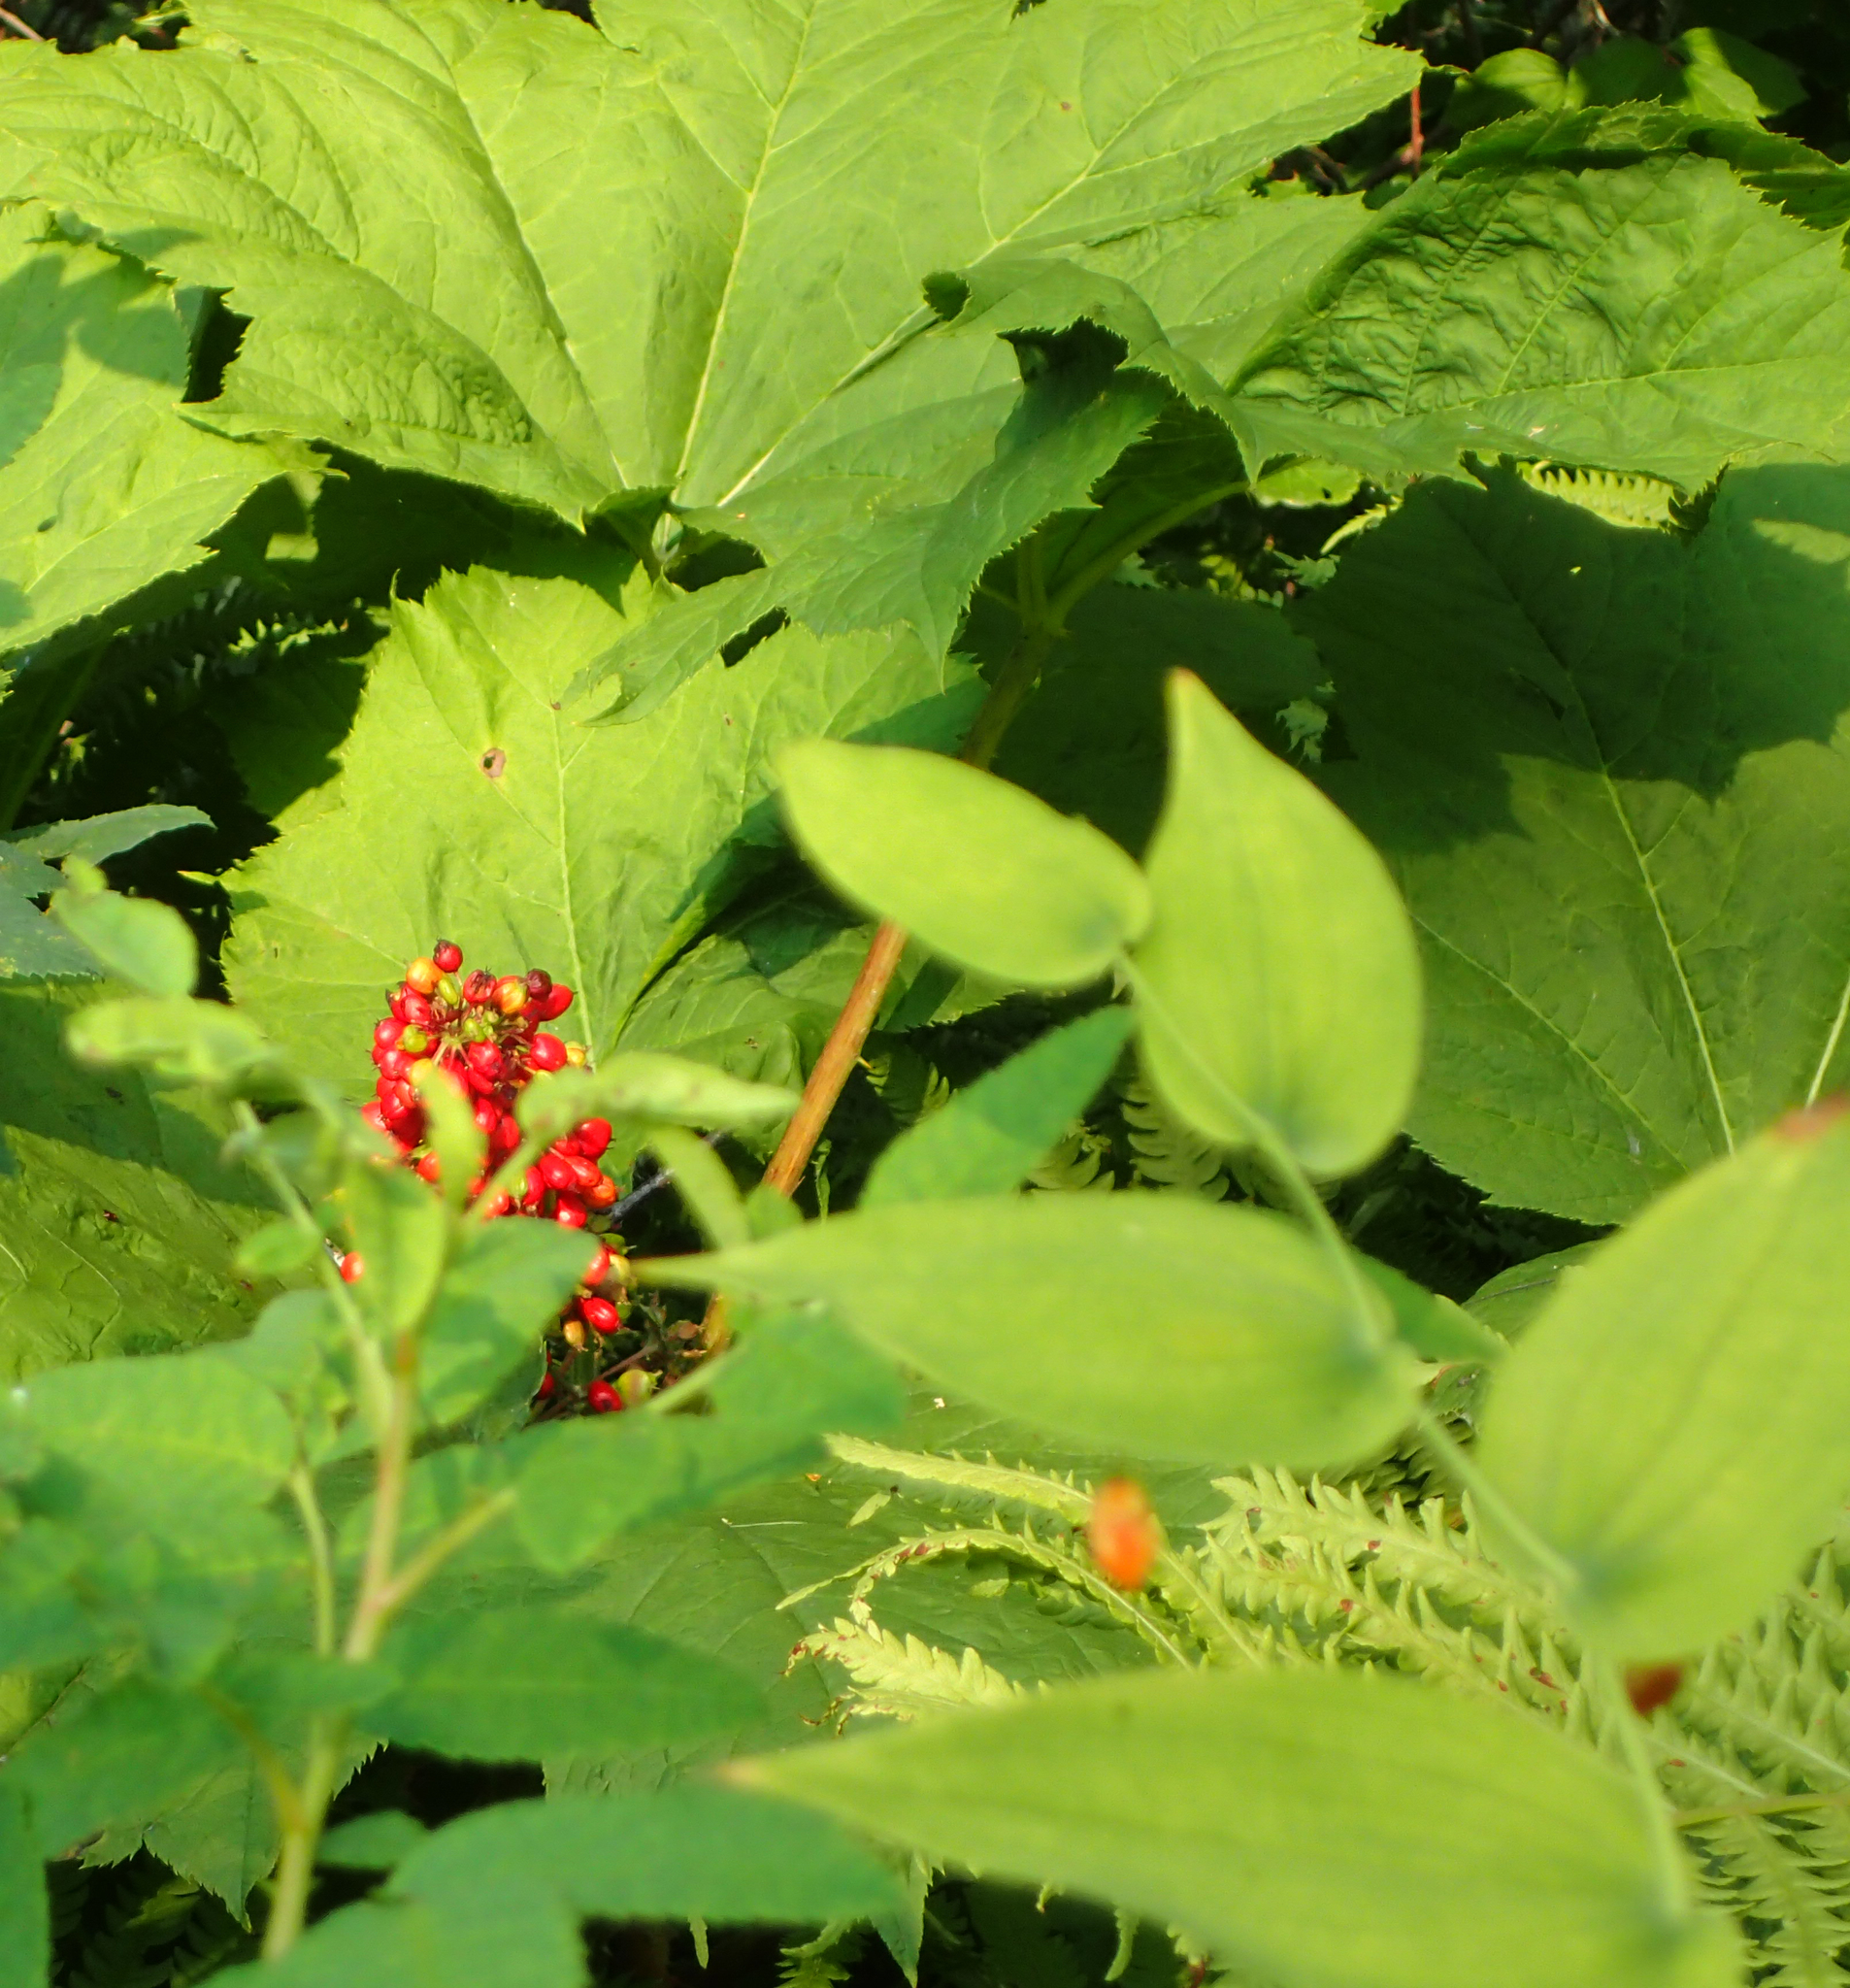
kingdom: Plantae
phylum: Tracheophyta
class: Magnoliopsida
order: Apiales
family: Araliaceae
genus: Oplopanax
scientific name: Oplopanax horridus
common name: Devil's walking-stick
